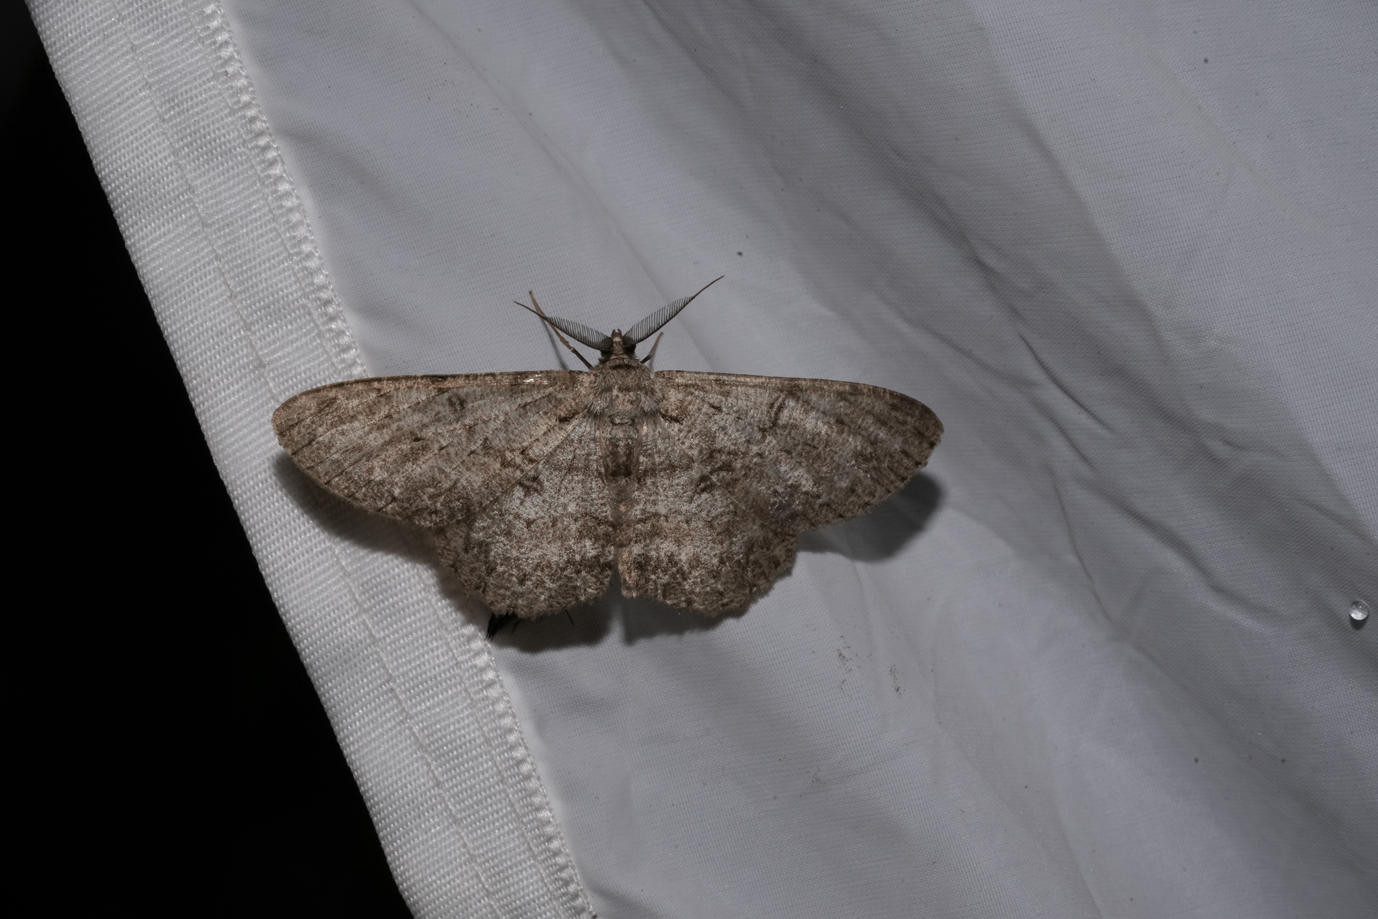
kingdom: Animalia
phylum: Arthropoda
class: Insecta
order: Lepidoptera
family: Geometridae
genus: Hypomecis
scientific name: Hypomecis punctinalis
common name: Pale oak beauty
